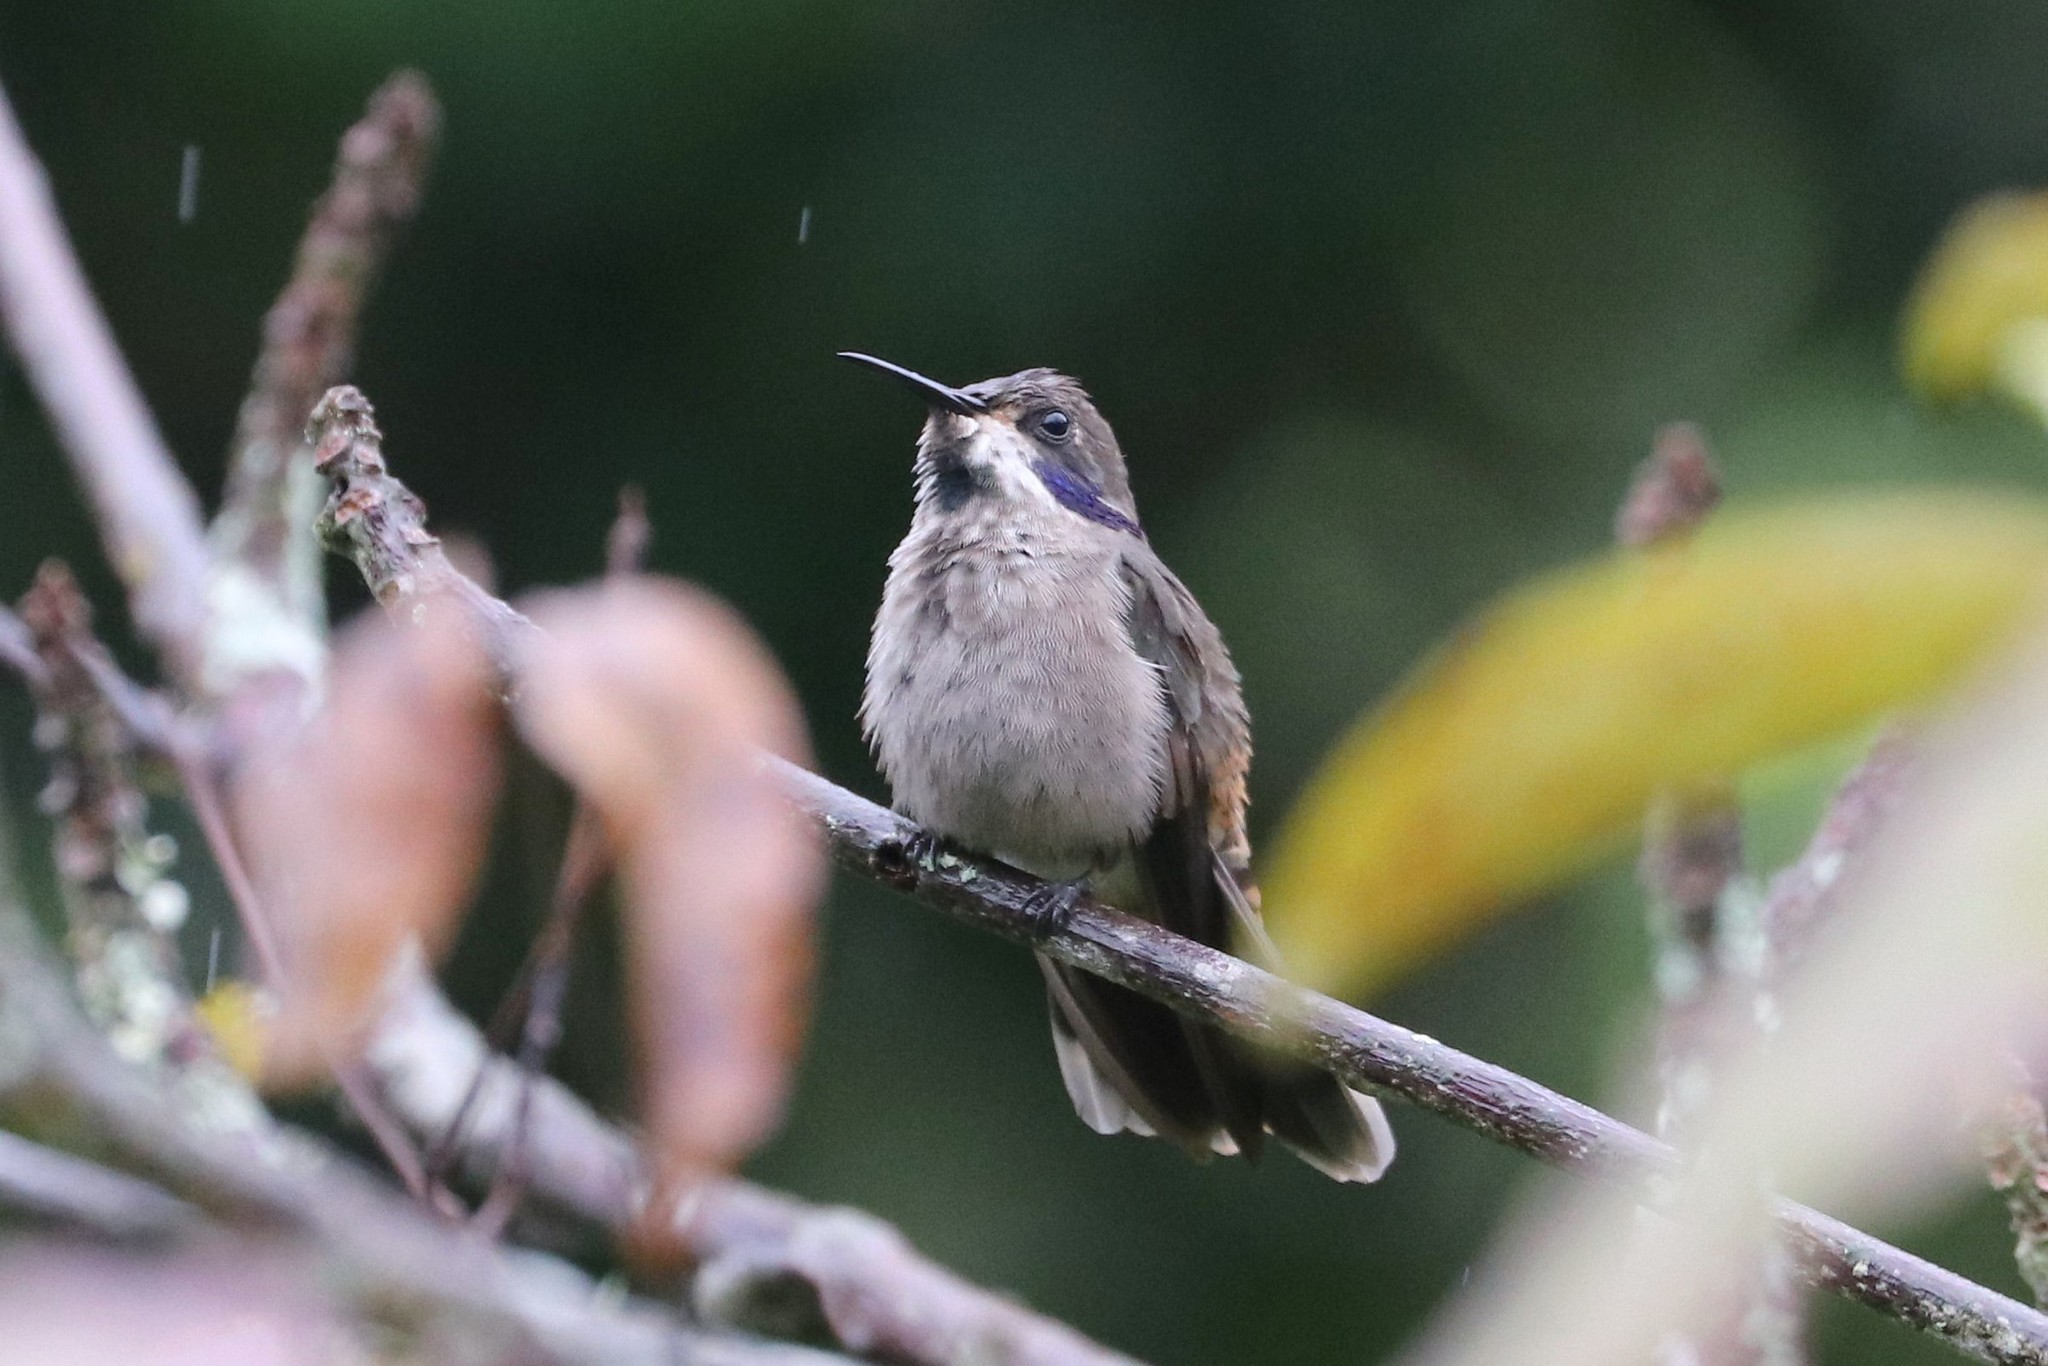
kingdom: Animalia
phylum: Chordata
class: Aves
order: Apodiformes
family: Trochilidae
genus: Colibri
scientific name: Colibri delphinae
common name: Brown violetear
